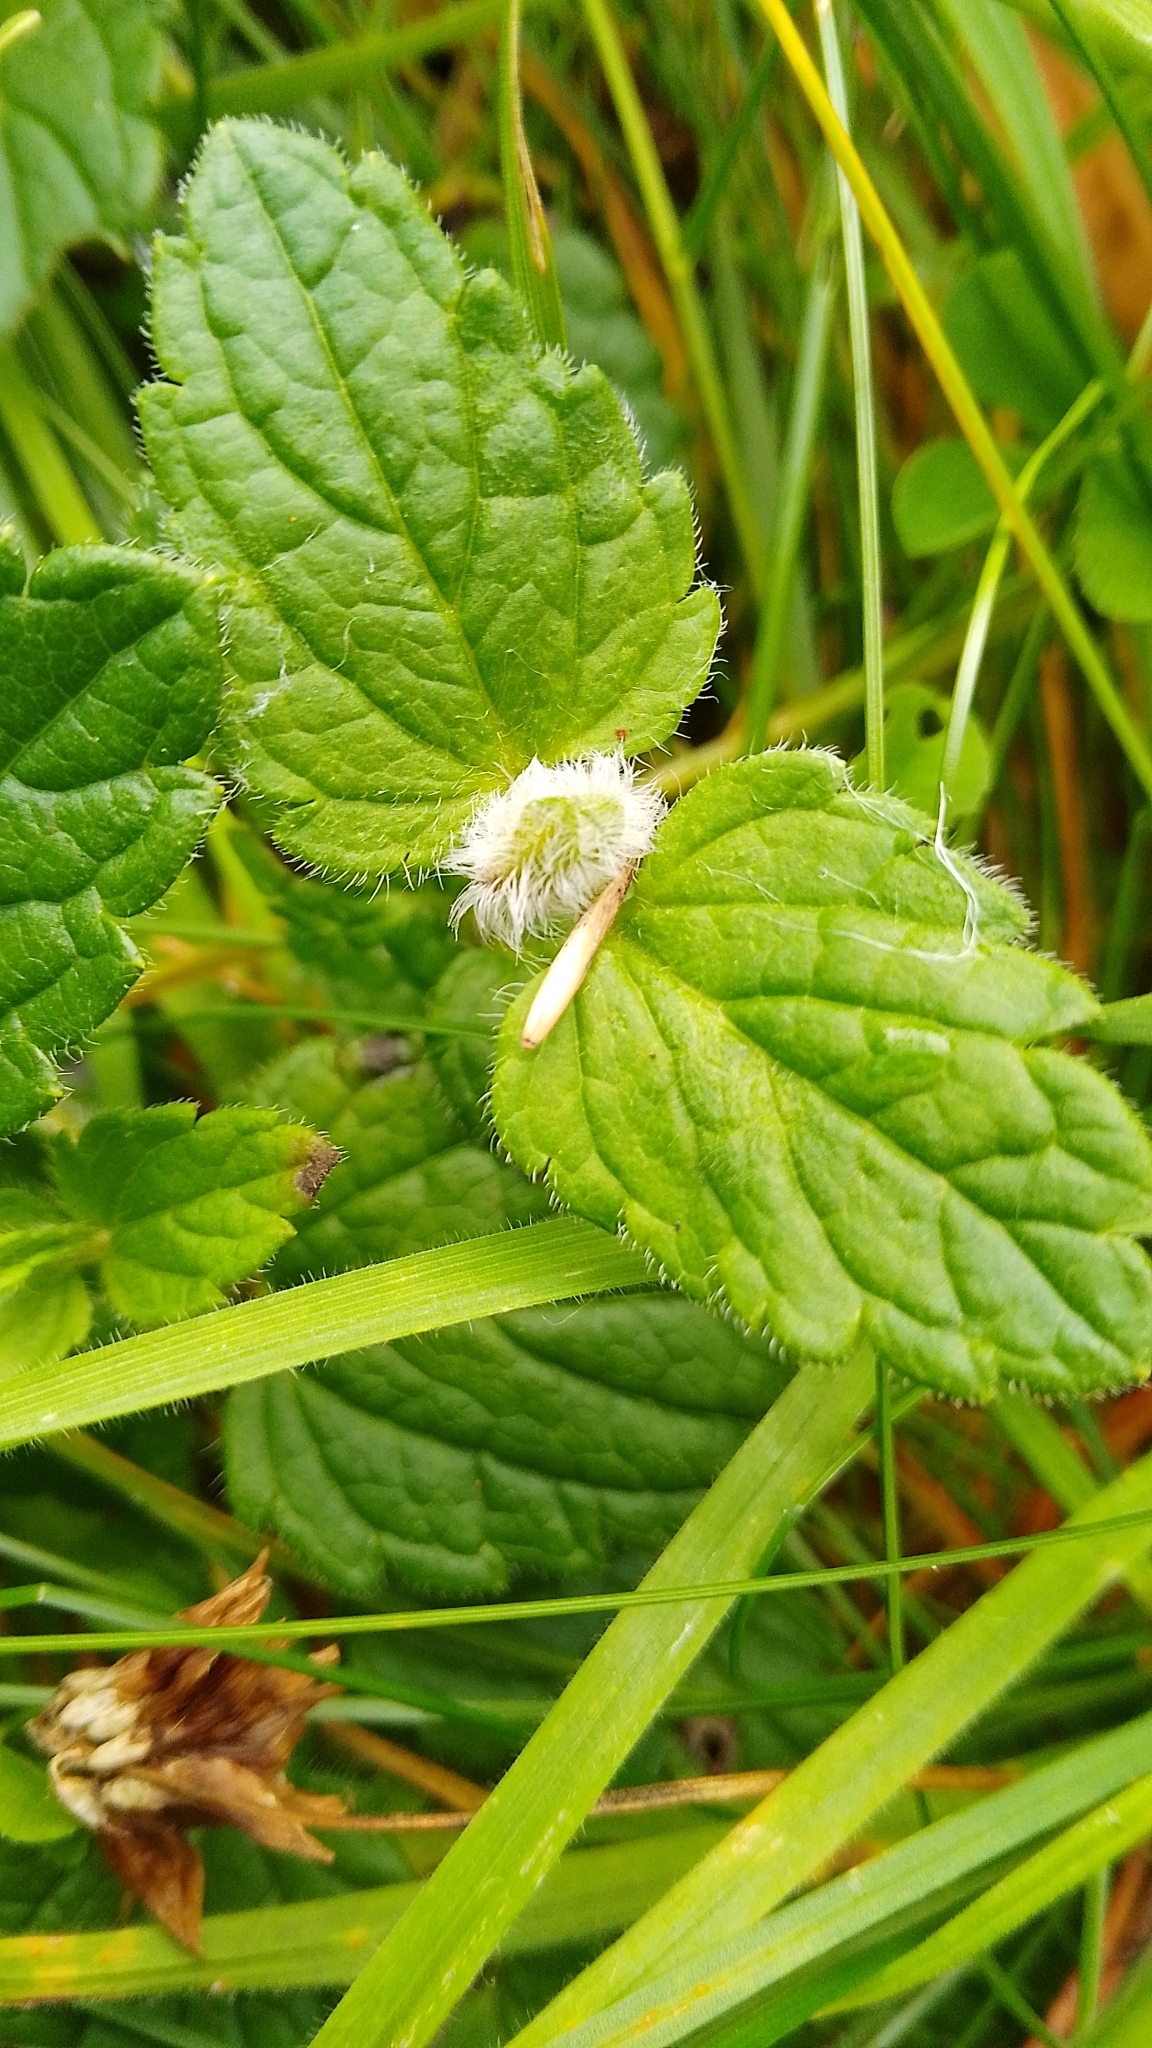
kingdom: Animalia
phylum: Arthropoda
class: Insecta
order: Diptera
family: Cecidomyiidae
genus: Jaapiella
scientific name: Jaapiella veronicae
